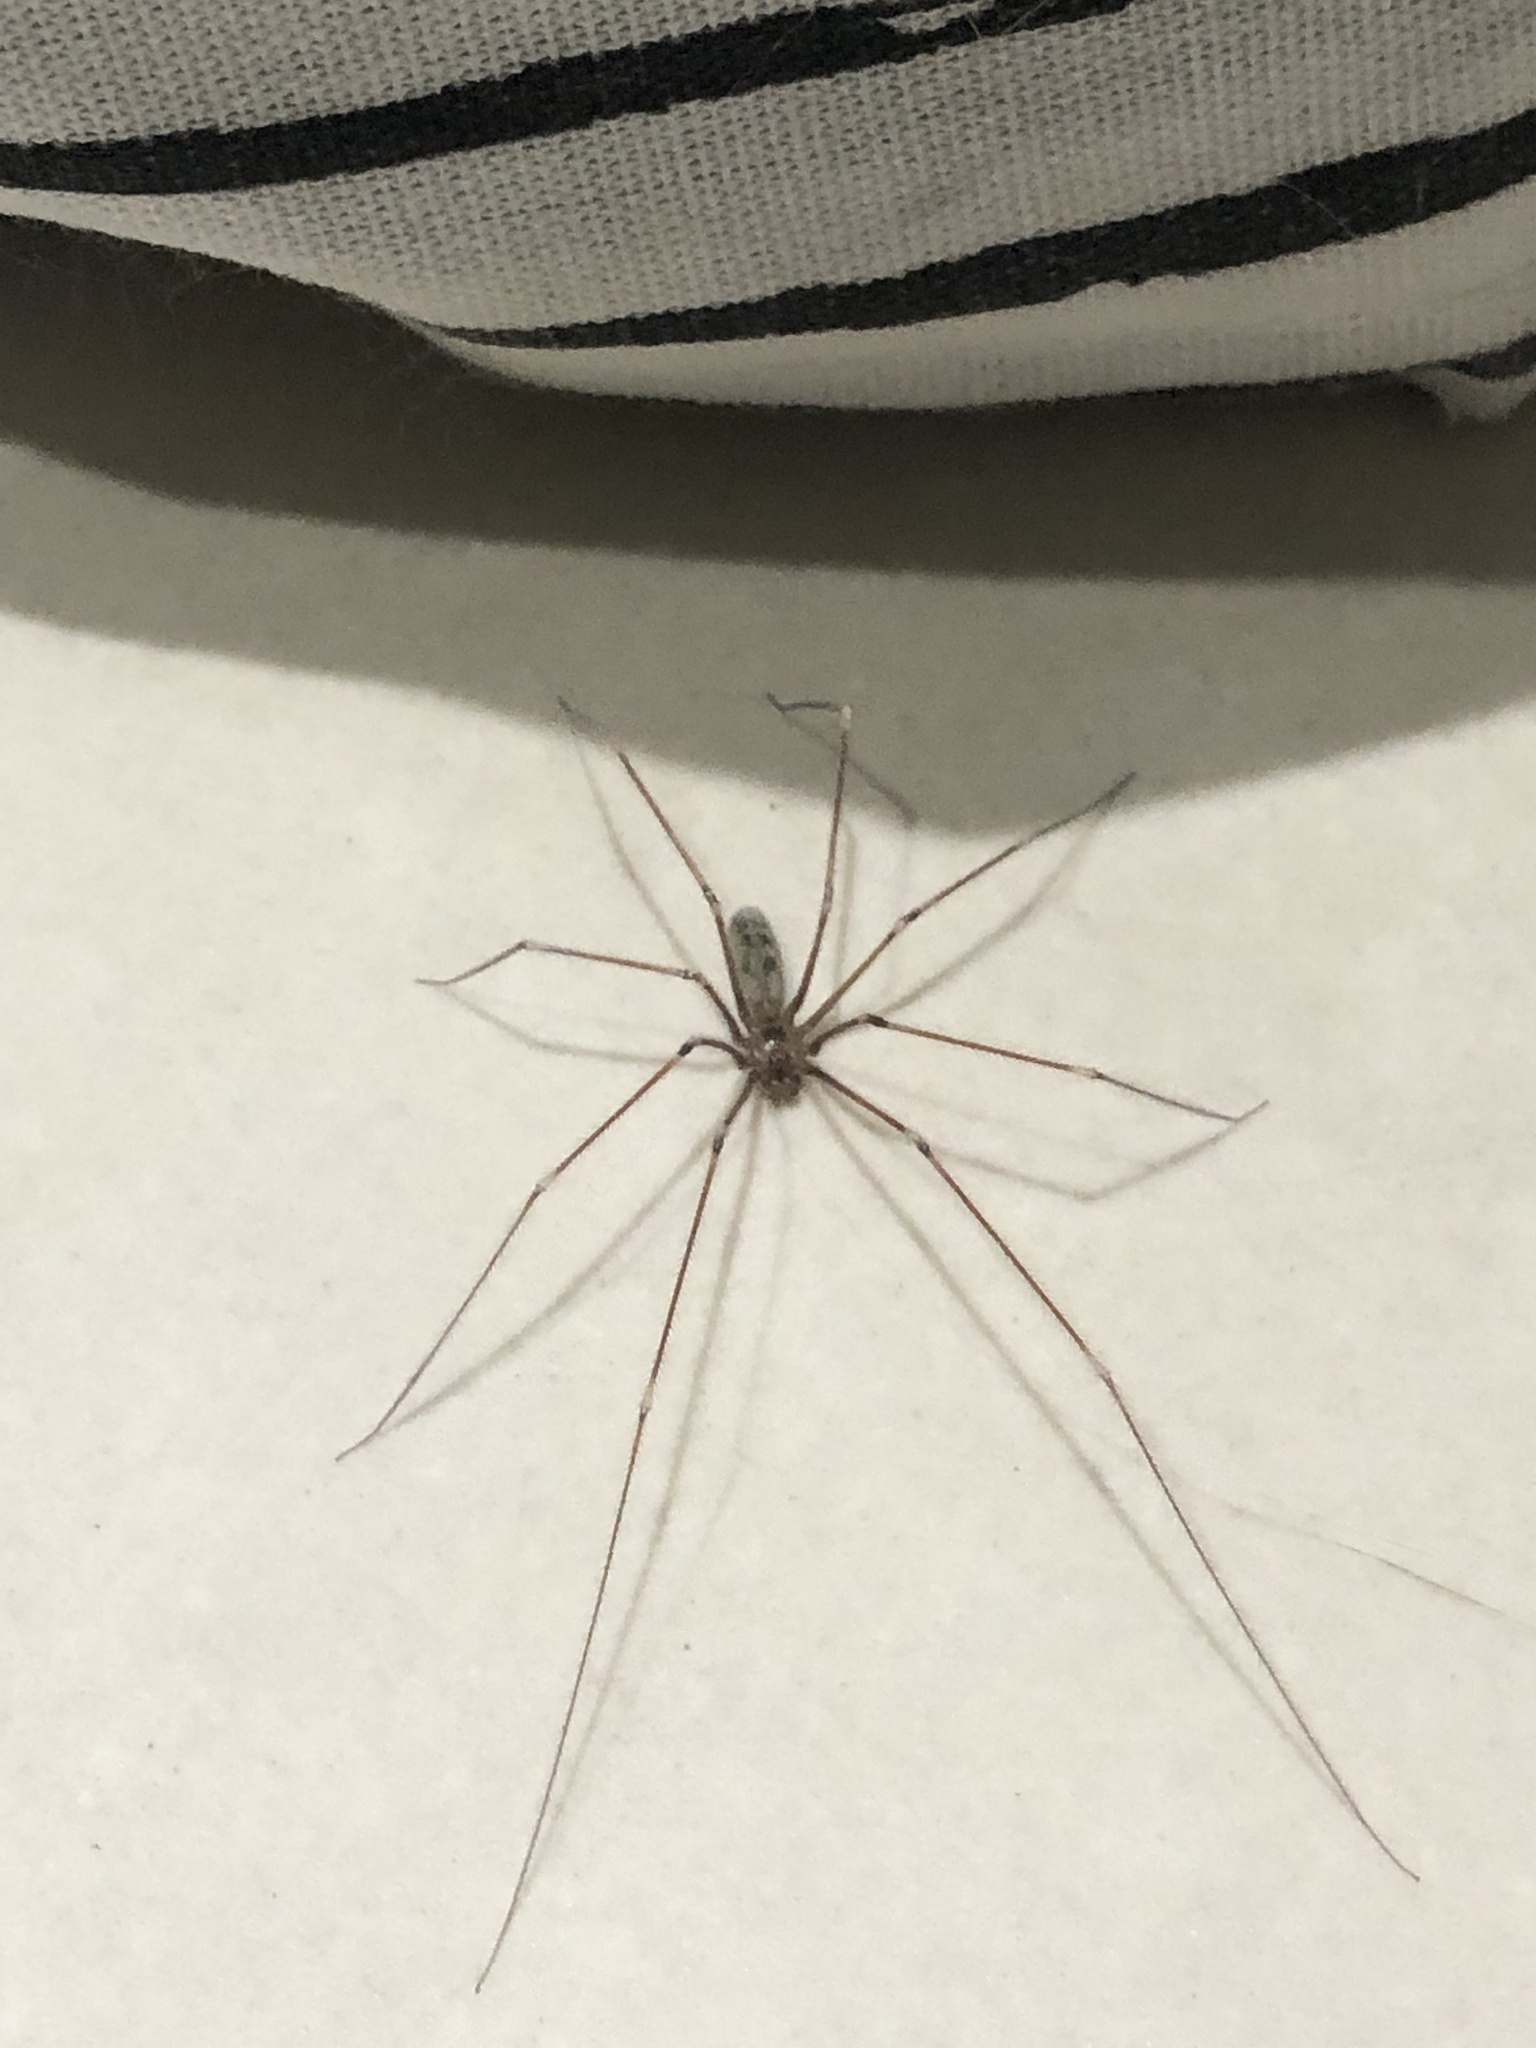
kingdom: Animalia
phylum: Arthropoda
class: Arachnida
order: Araneae
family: Pholcidae
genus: Pholcus
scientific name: Pholcus phalangioides
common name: Longbodied cellar spider
